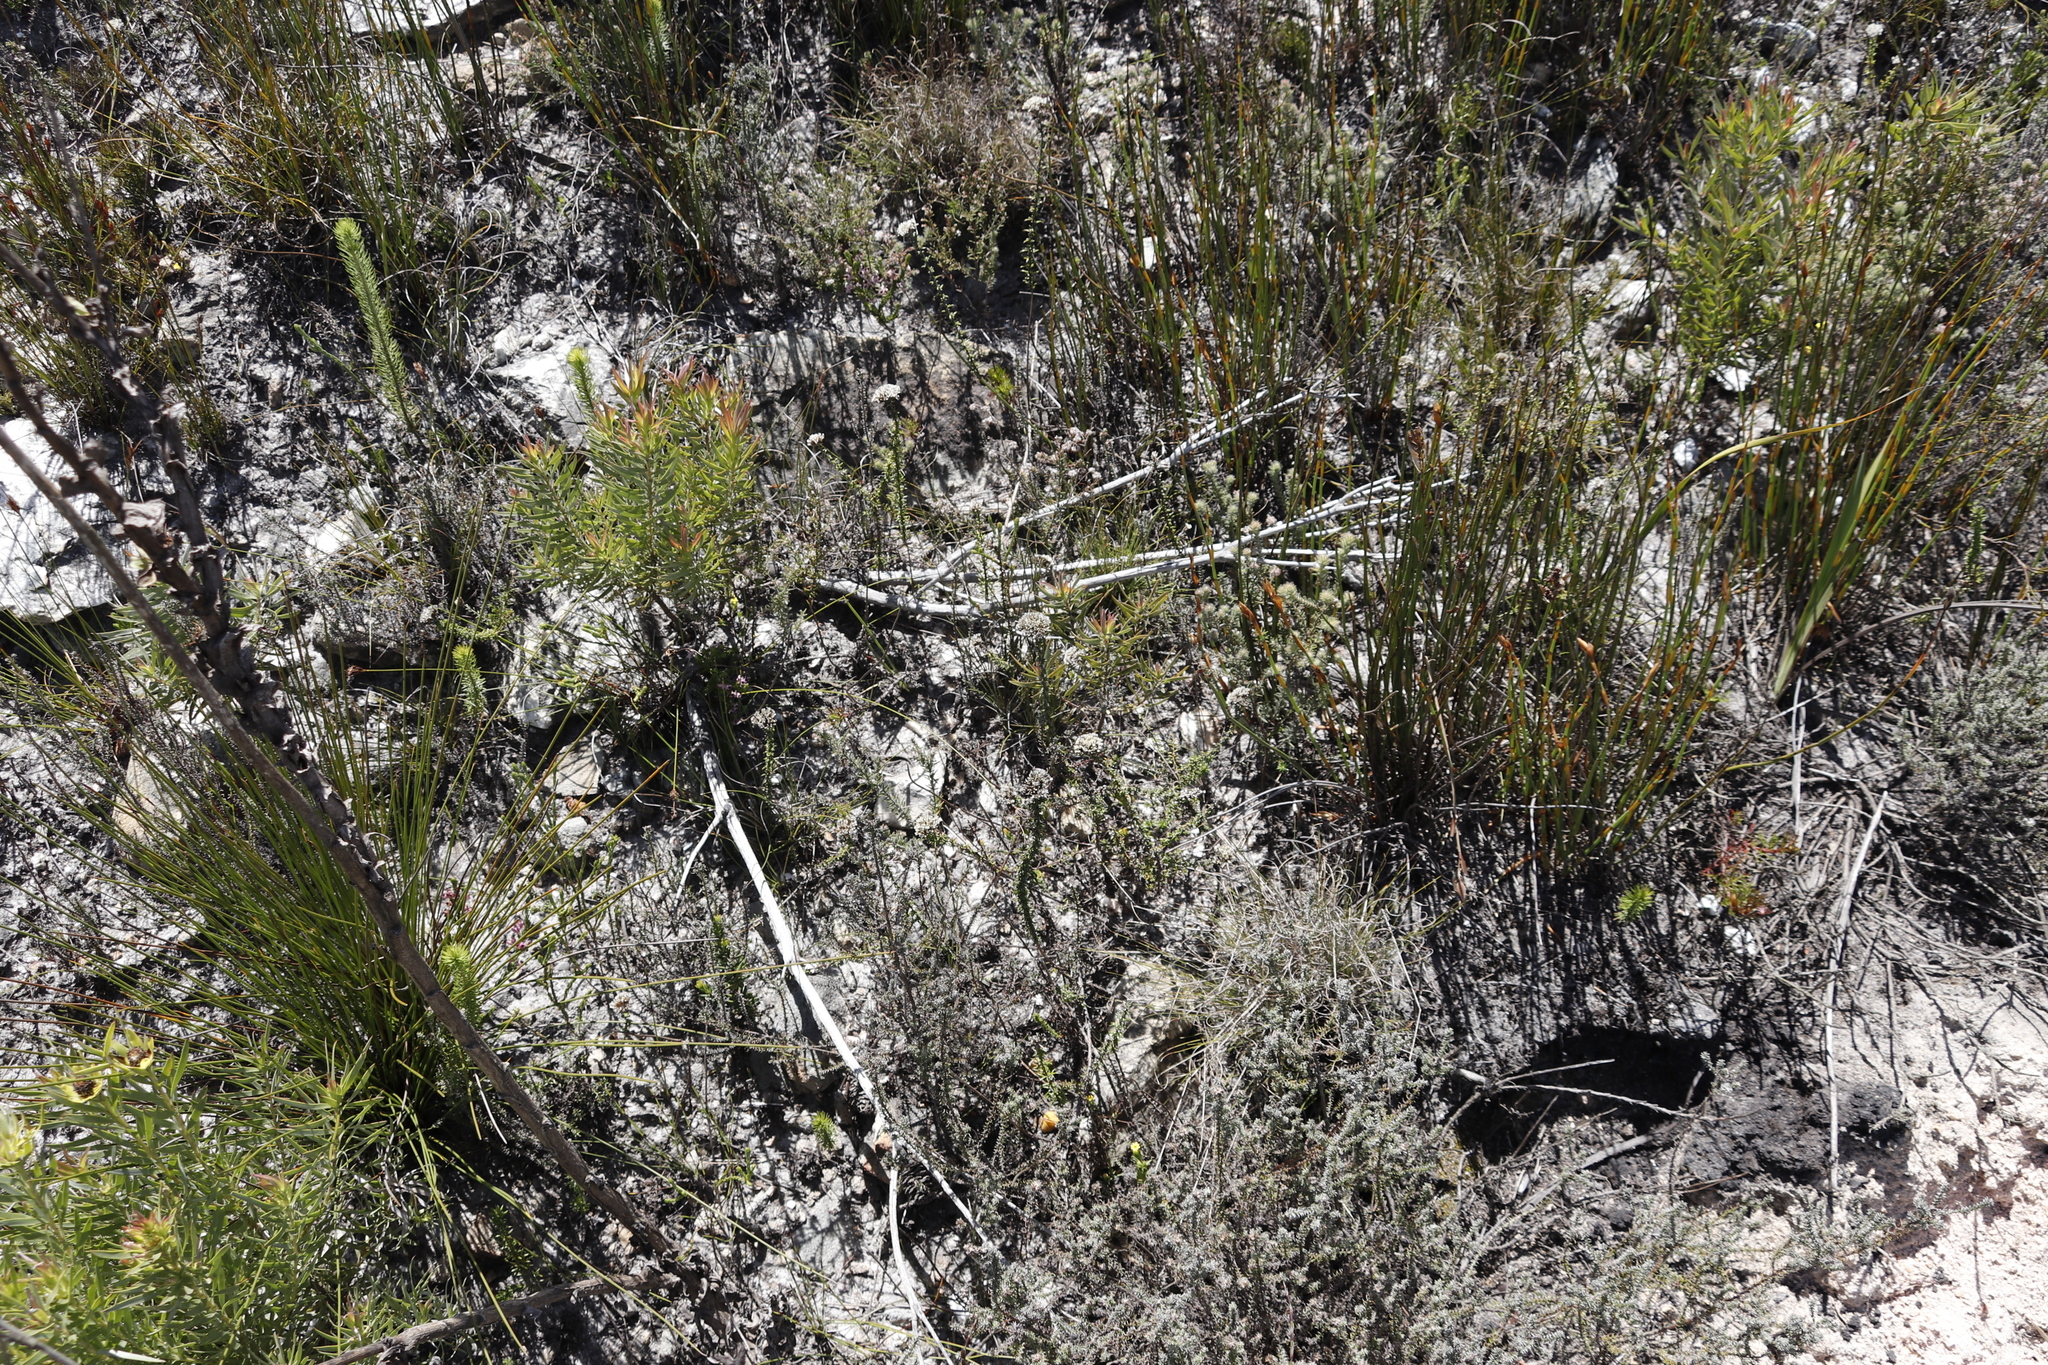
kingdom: Plantae
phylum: Tracheophyta
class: Magnoliopsida
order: Asterales
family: Asteraceae
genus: Metalasia
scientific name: Metalasia densa
